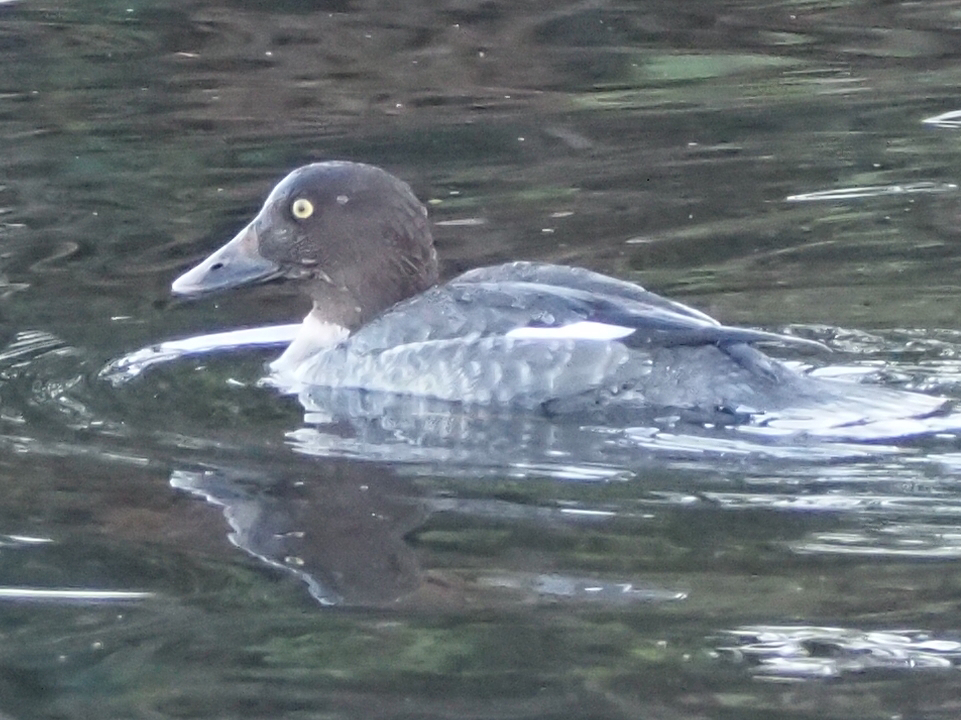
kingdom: Animalia
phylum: Chordata
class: Aves
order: Anseriformes
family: Anatidae
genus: Bucephala
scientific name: Bucephala clangula
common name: Common goldeneye
